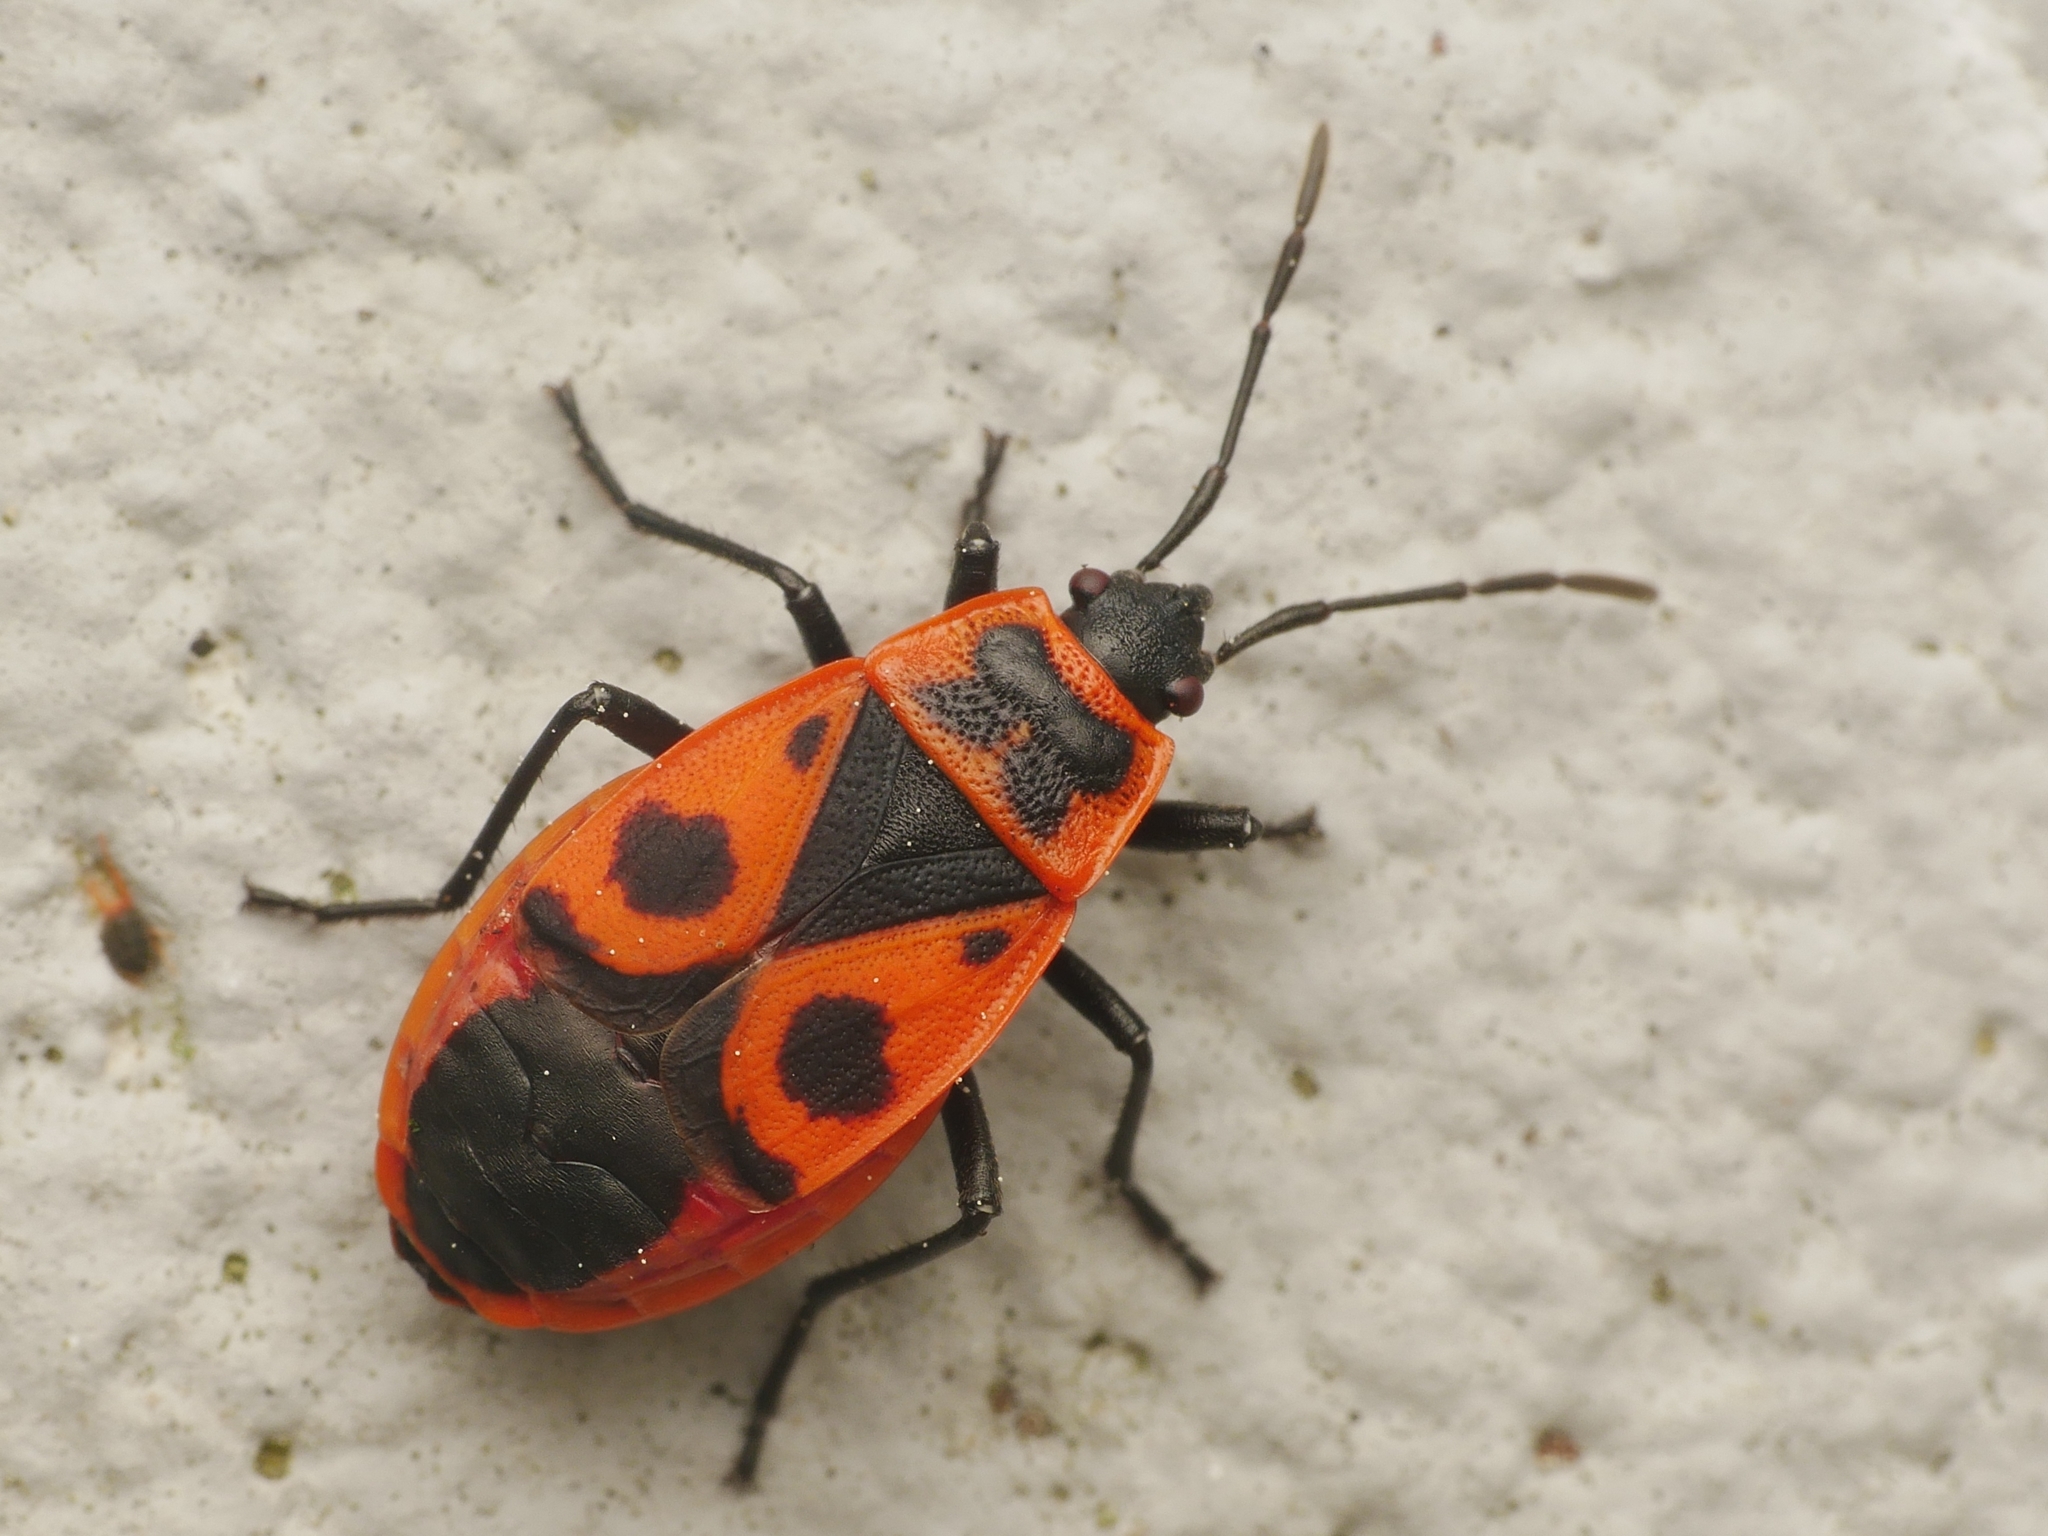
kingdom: Animalia
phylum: Arthropoda
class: Insecta
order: Hemiptera
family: Pyrrhocoridae
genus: Pyrrhocoris
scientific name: Pyrrhocoris apterus
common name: Firebug
